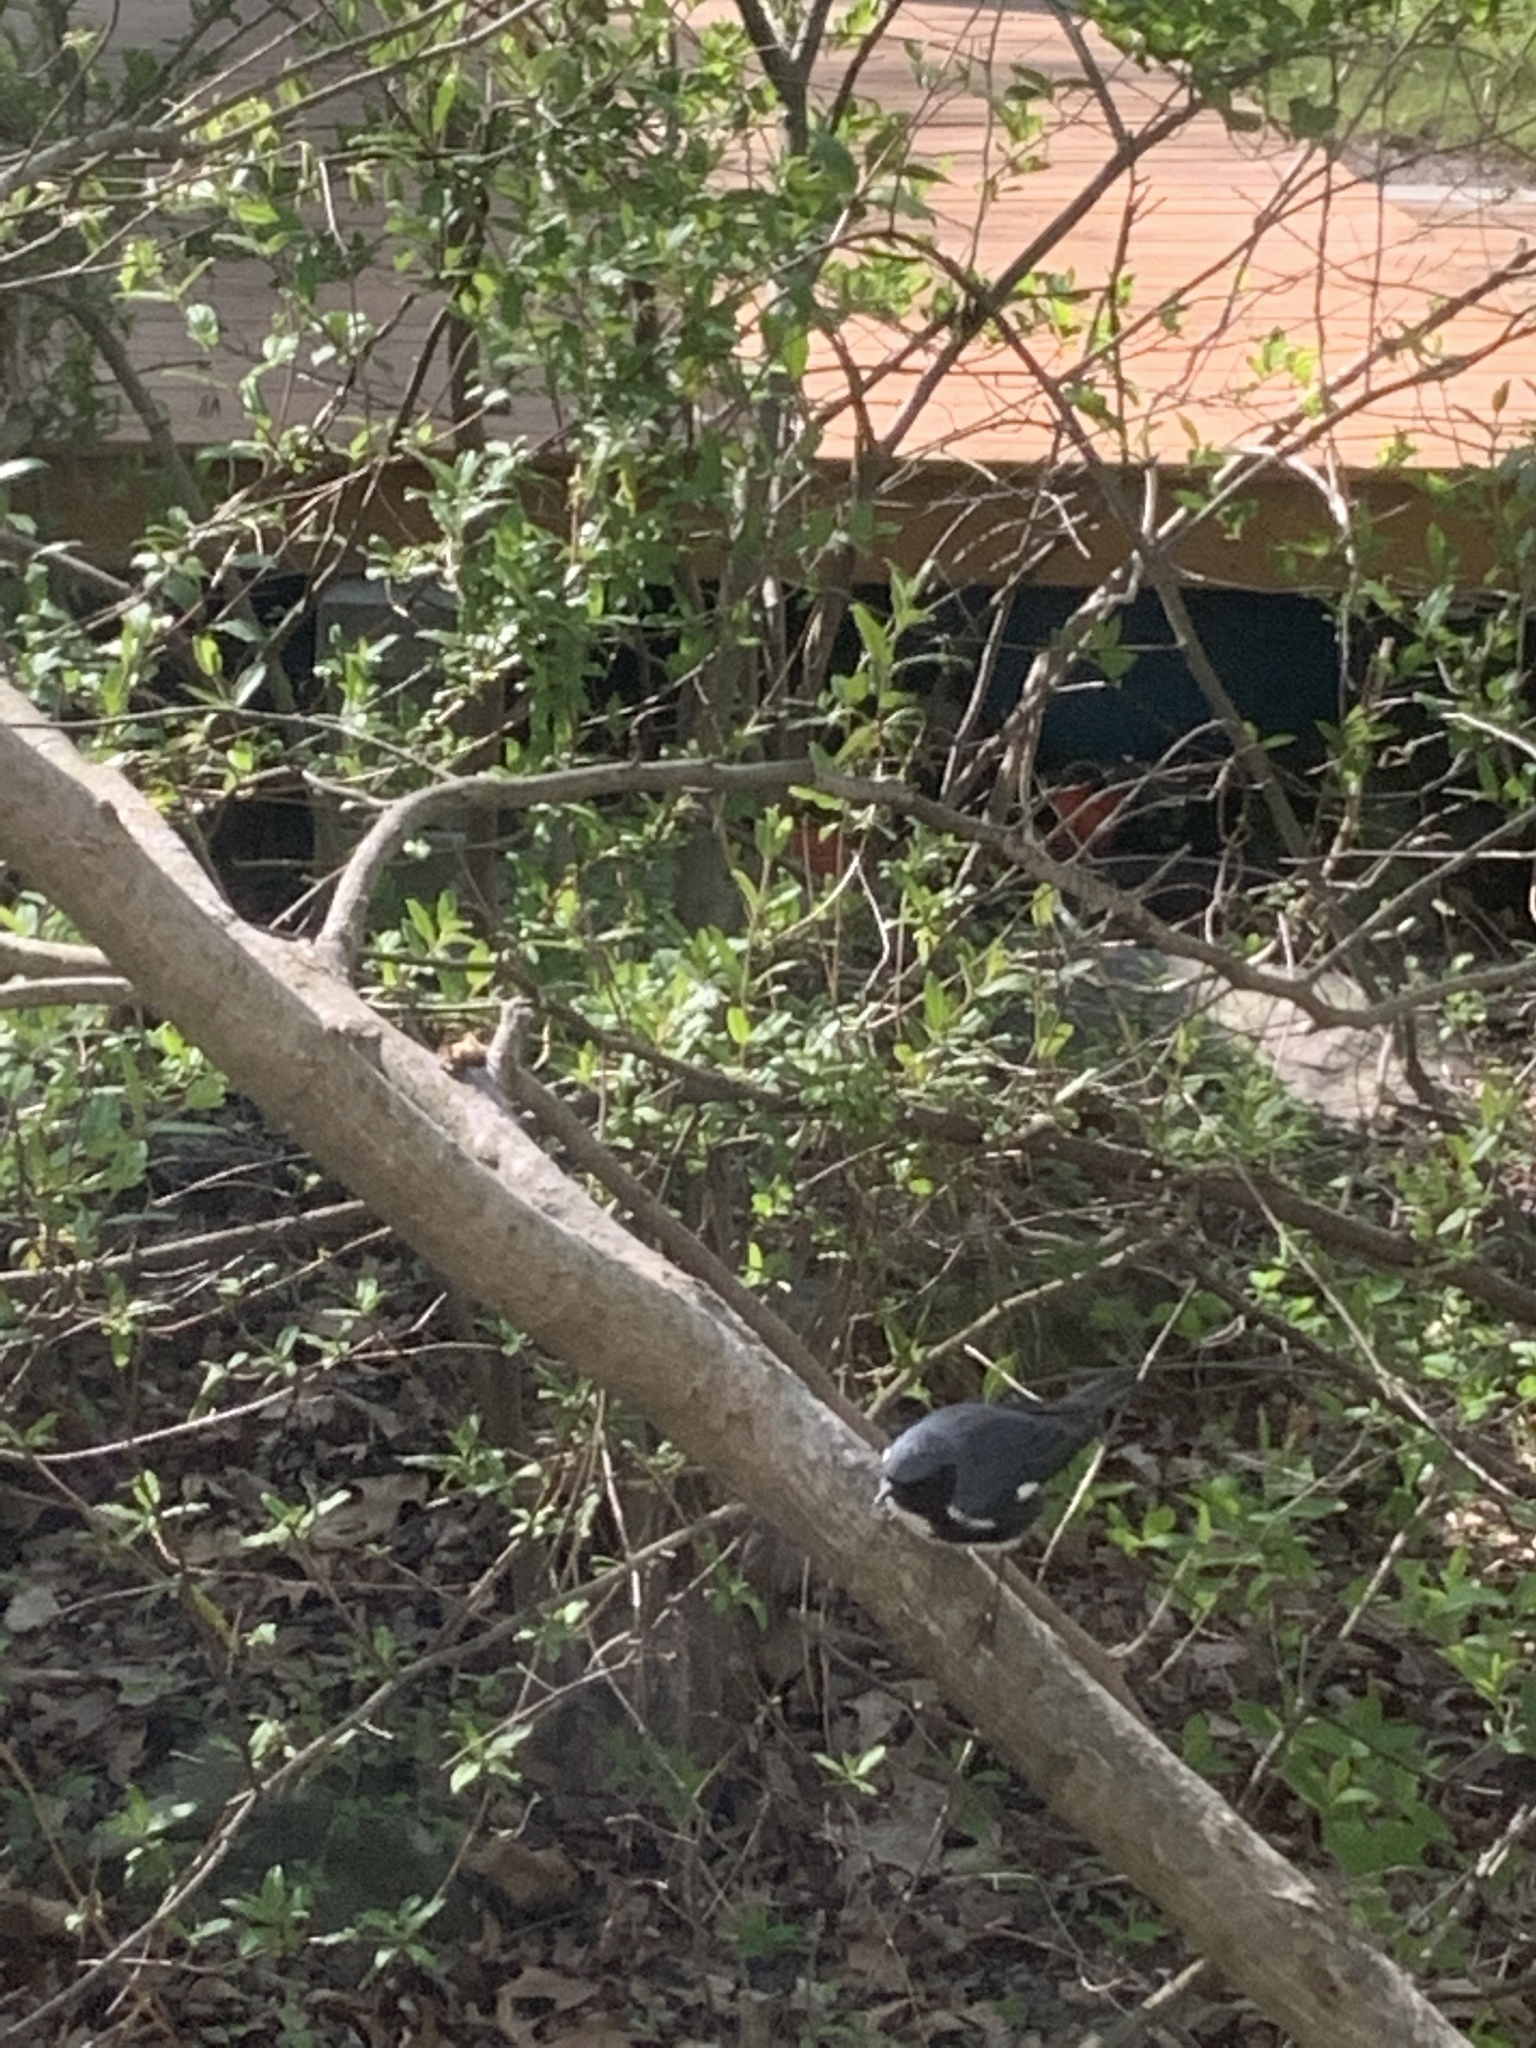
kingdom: Animalia
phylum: Chordata
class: Aves
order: Passeriformes
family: Parulidae
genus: Setophaga
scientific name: Setophaga caerulescens
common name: Black-throated blue warbler
